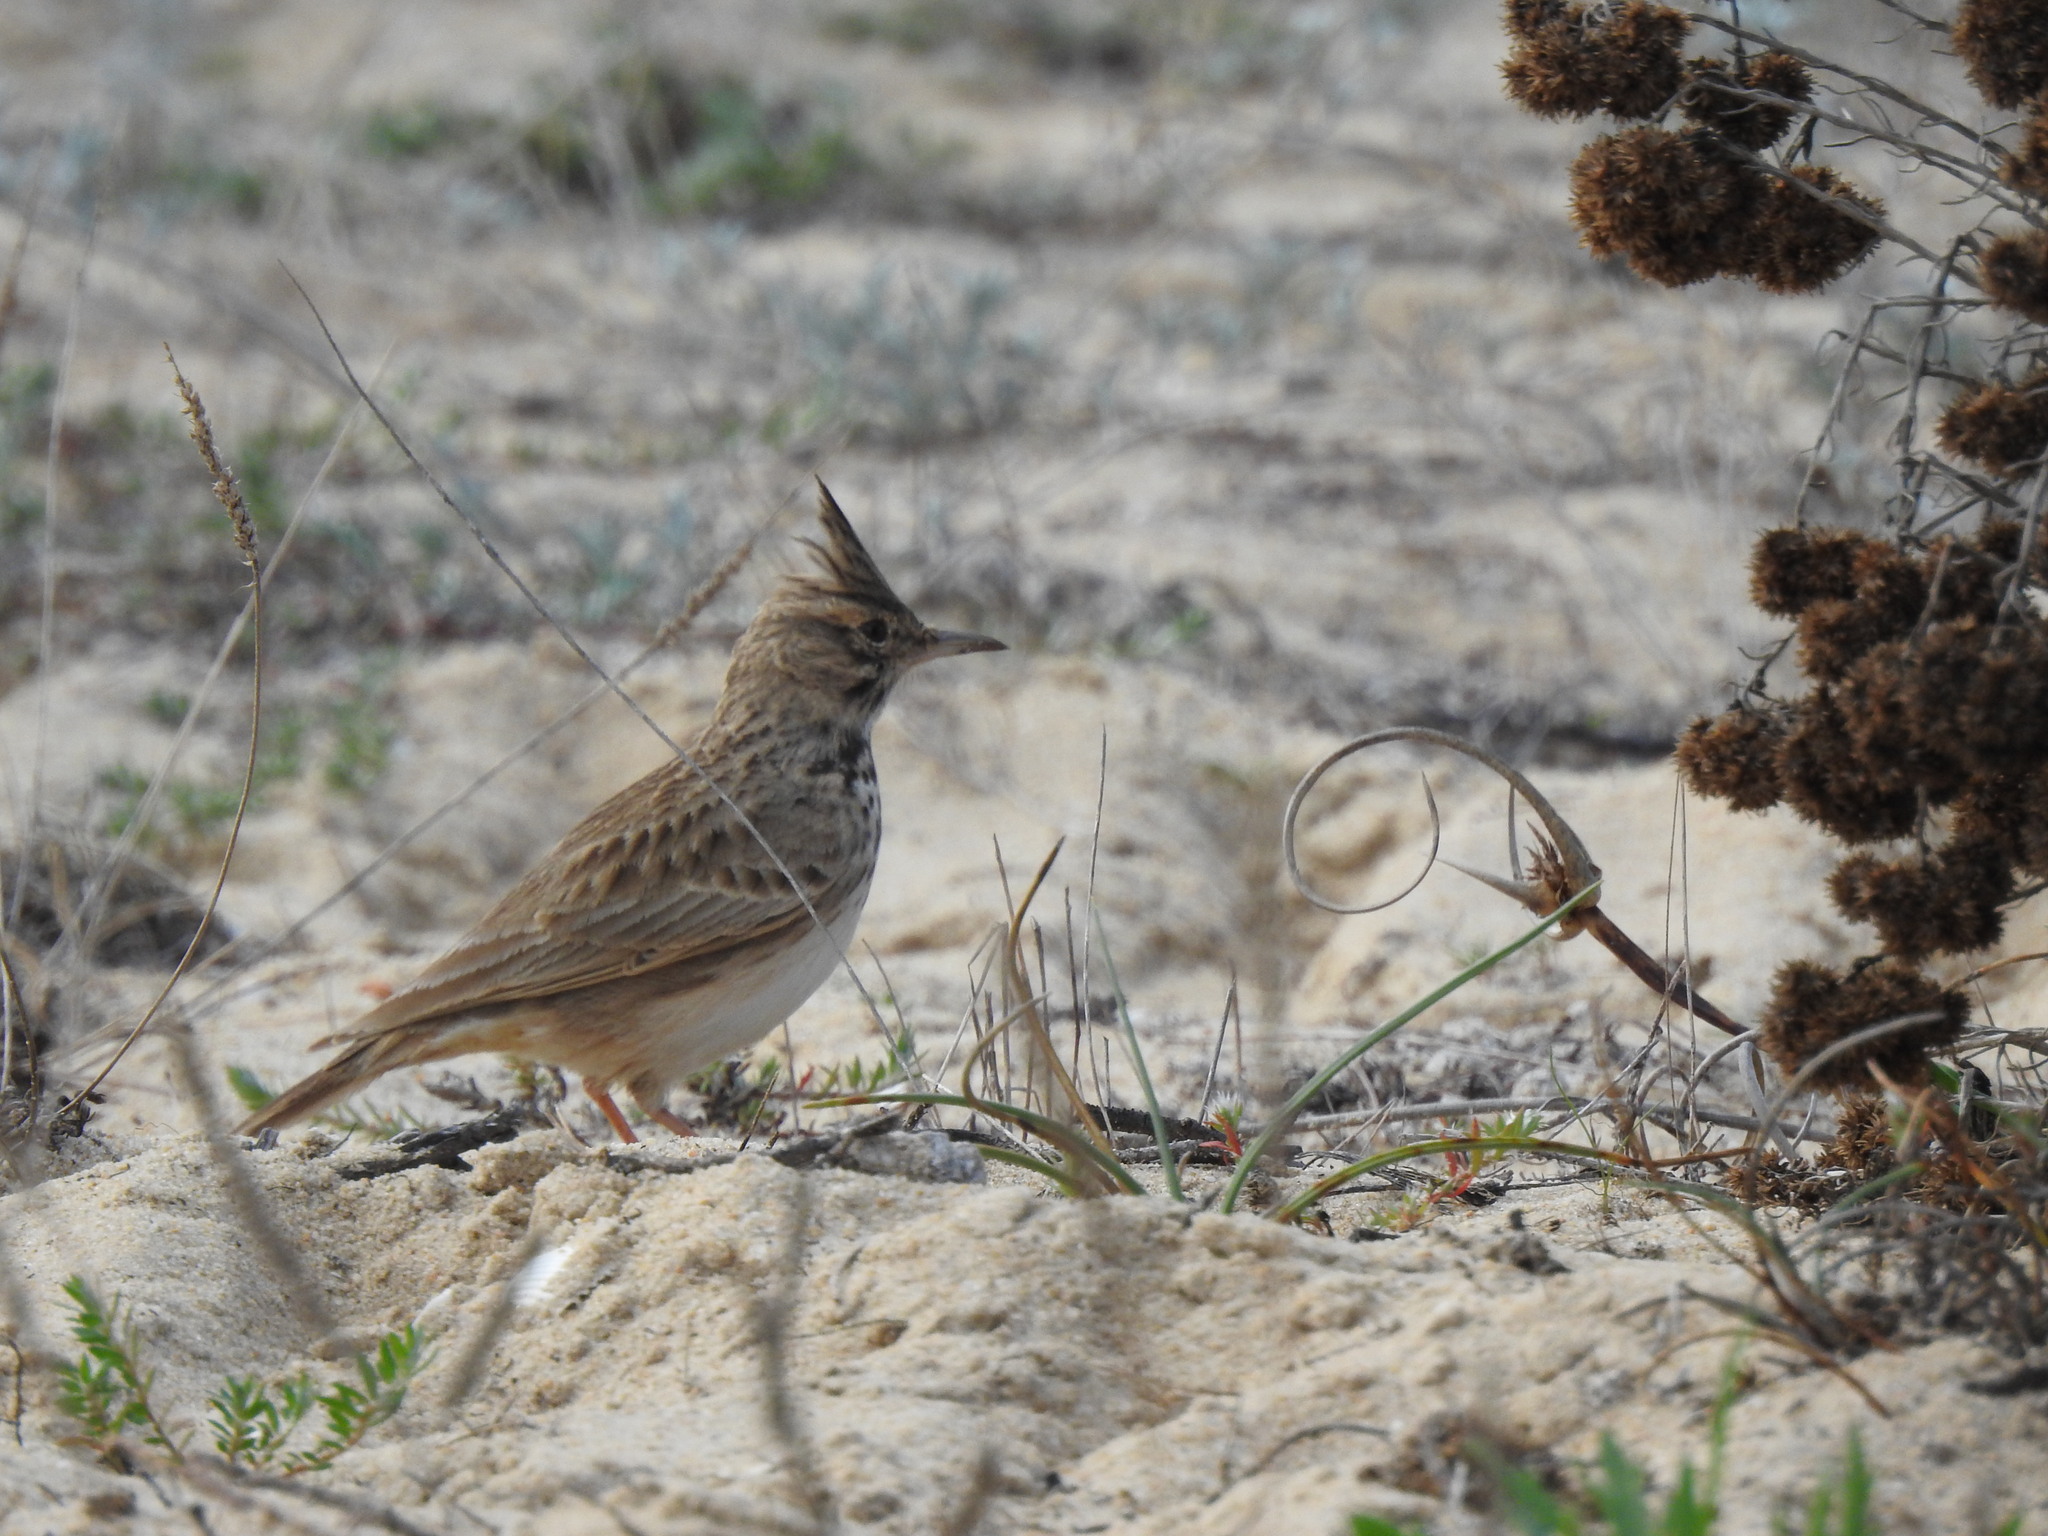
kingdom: Animalia
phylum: Chordata
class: Aves
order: Passeriformes
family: Alaudidae
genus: Galerida
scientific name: Galerida cristata
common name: Crested lark
